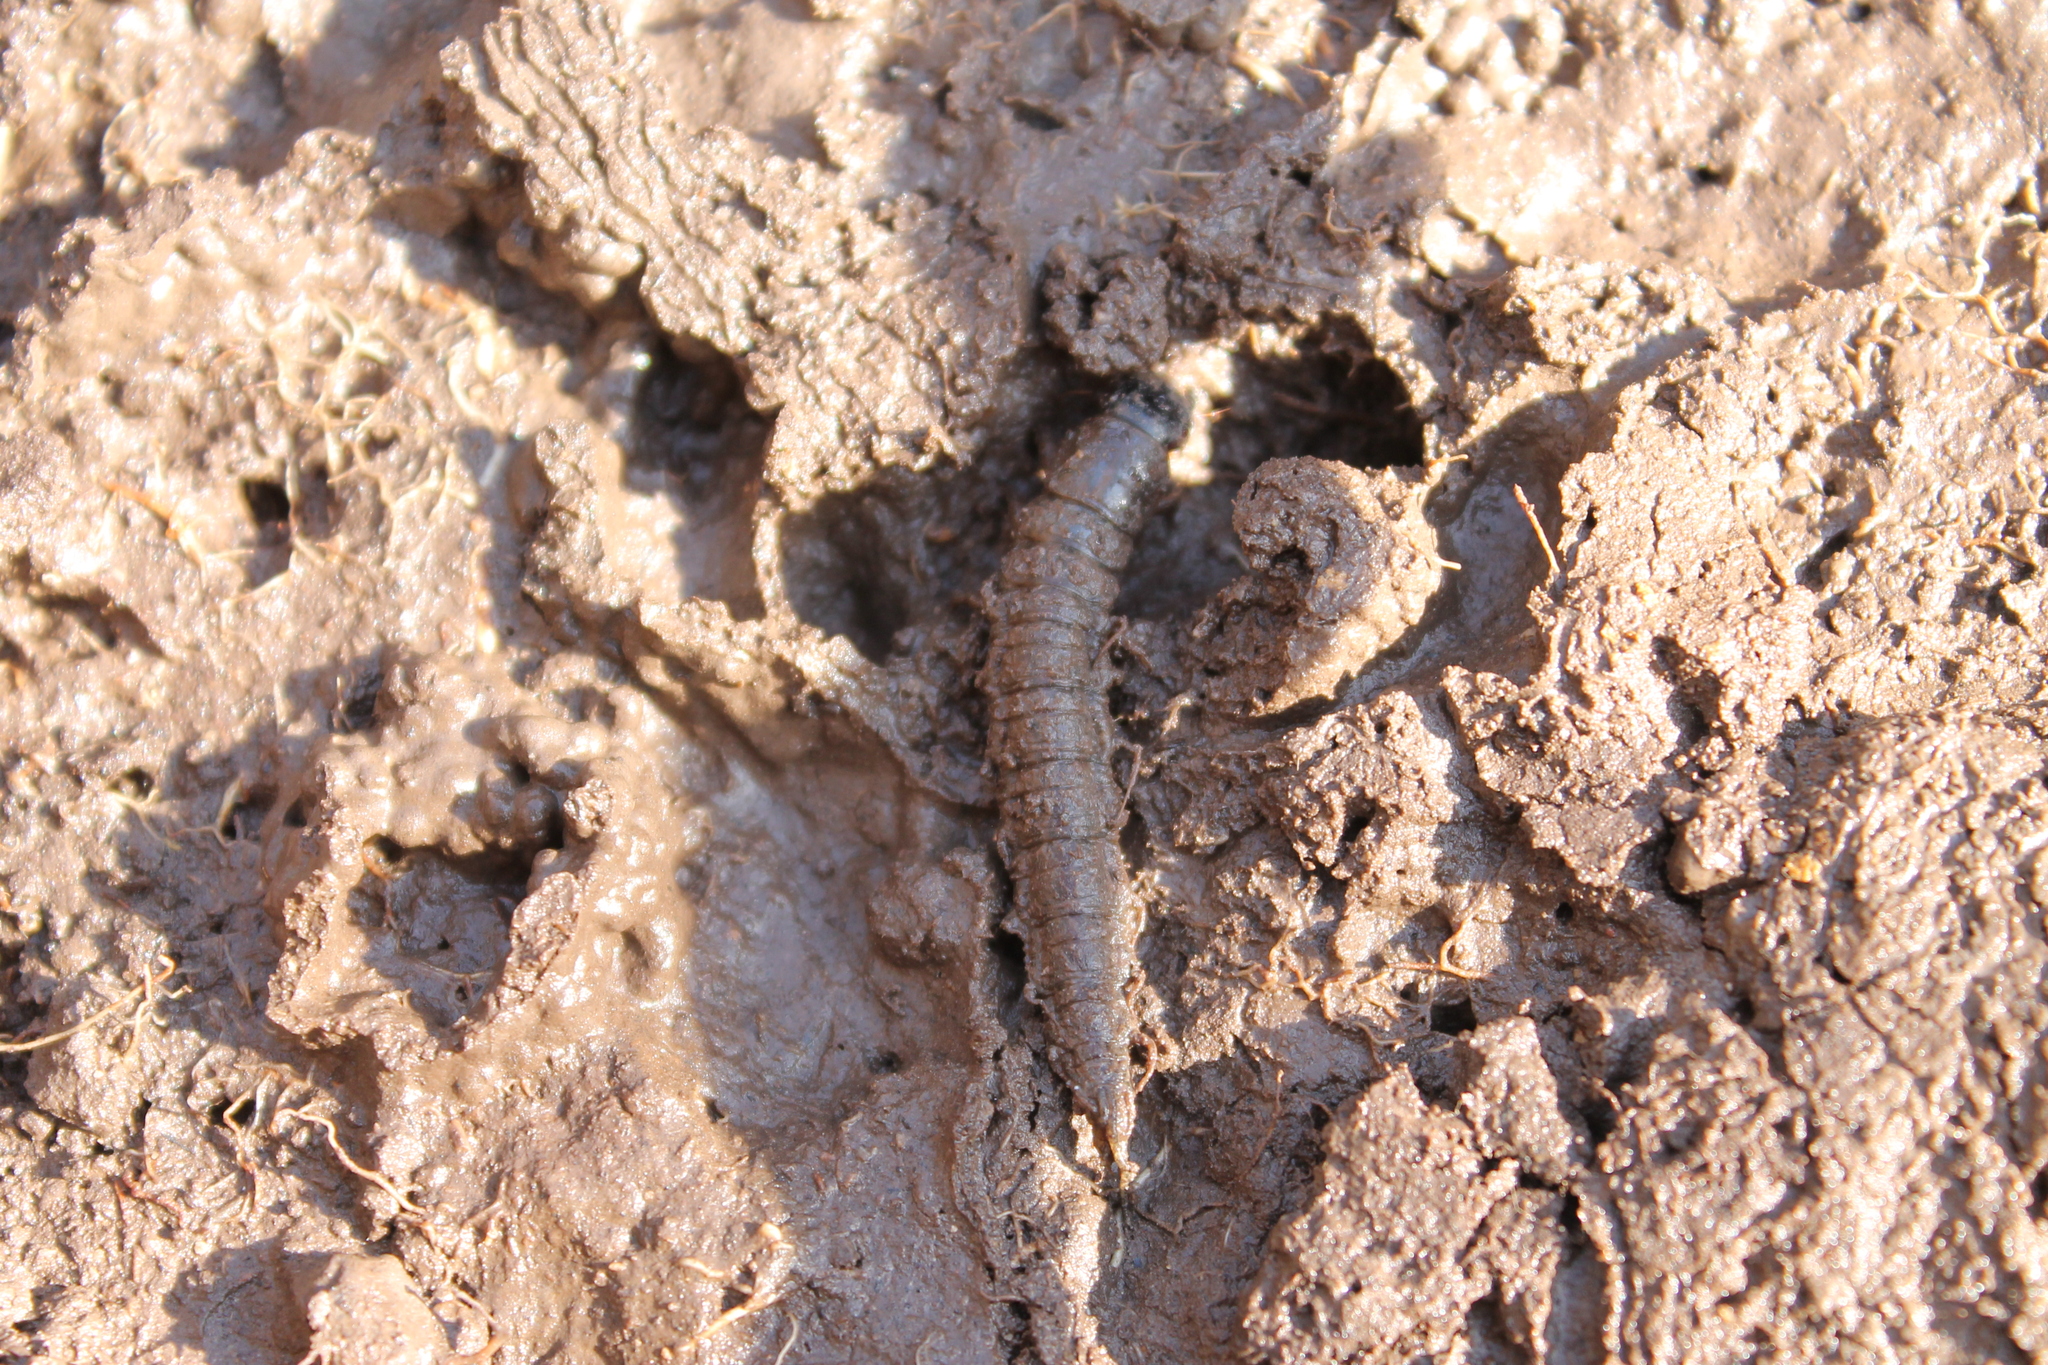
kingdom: Animalia
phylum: Arthropoda
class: Insecta
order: Megaloptera
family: Corydalidae
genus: Chauliodes
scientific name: Chauliodes
